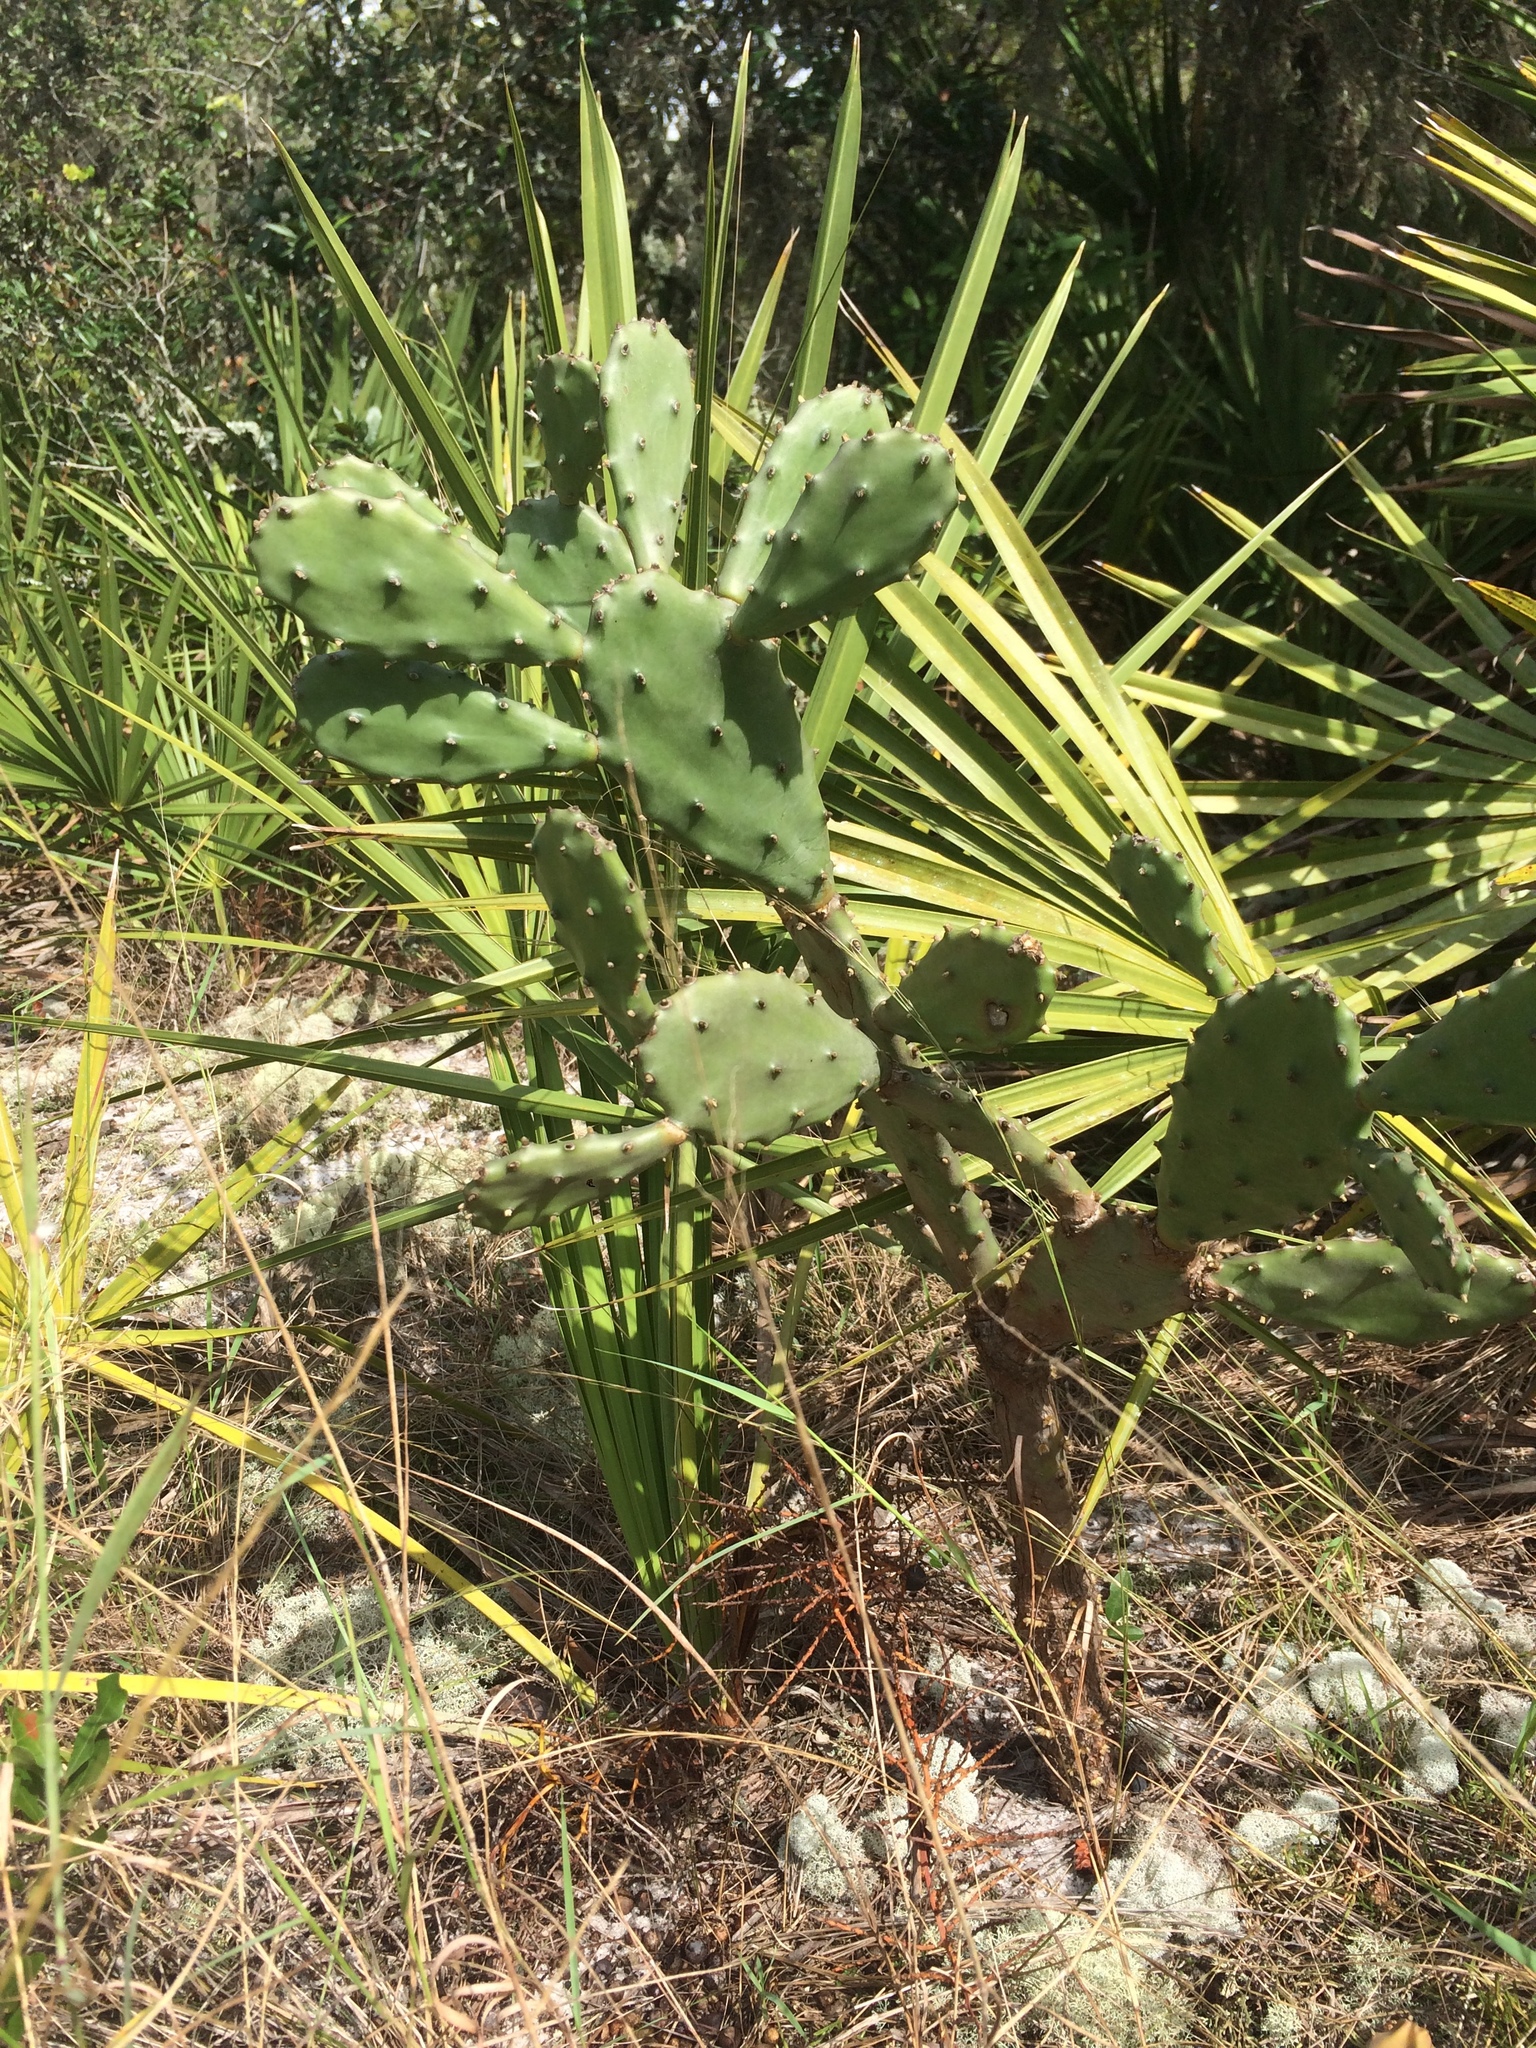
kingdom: Plantae
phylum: Tracheophyta
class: Magnoliopsida
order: Caryophyllales
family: Cactaceae
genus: Opuntia
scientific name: Opuntia austrina
